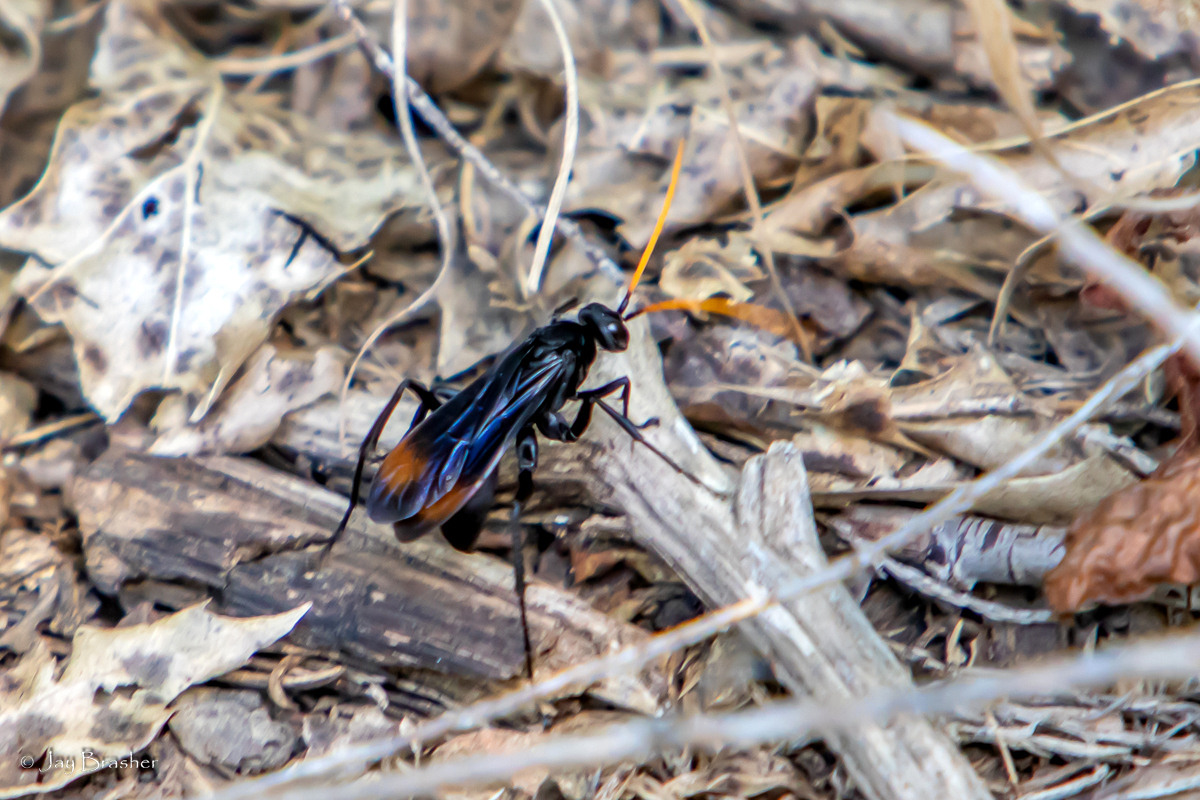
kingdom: Animalia
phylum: Arthropoda
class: Insecta
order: Hymenoptera
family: Pompilidae
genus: Entypus
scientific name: Entypus unifasciatus
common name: Eastern tawny-horned spider wasp
